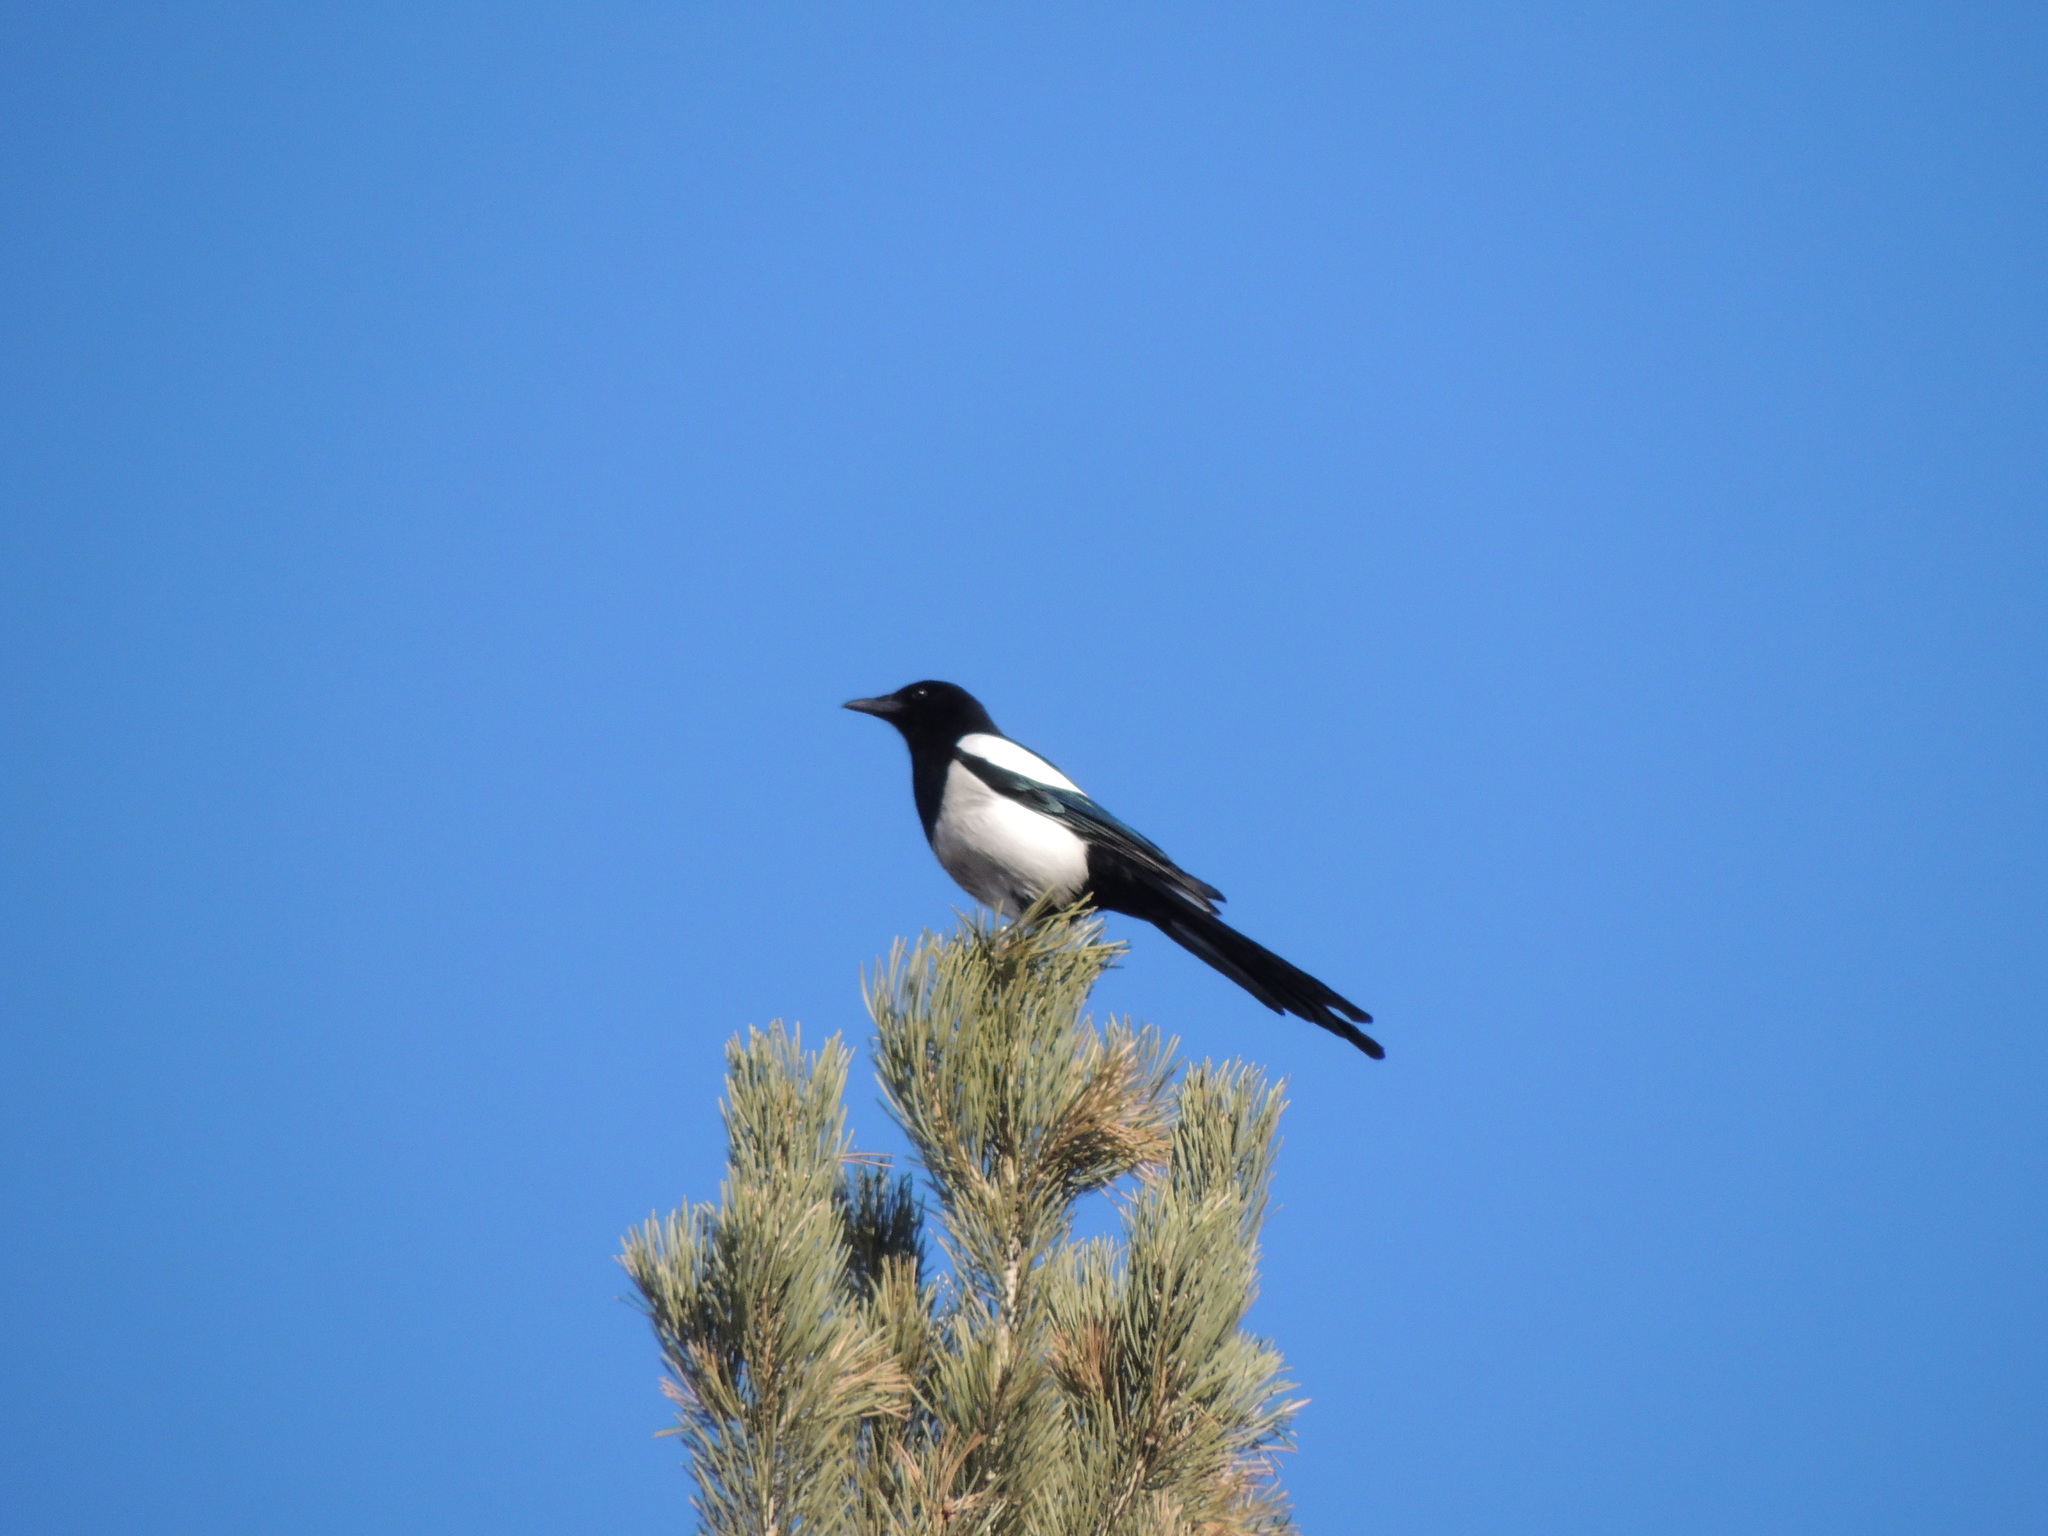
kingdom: Animalia
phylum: Chordata
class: Aves
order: Passeriformes
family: Corvidae
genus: Pica
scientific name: Pica pica
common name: Eurasian magpie
